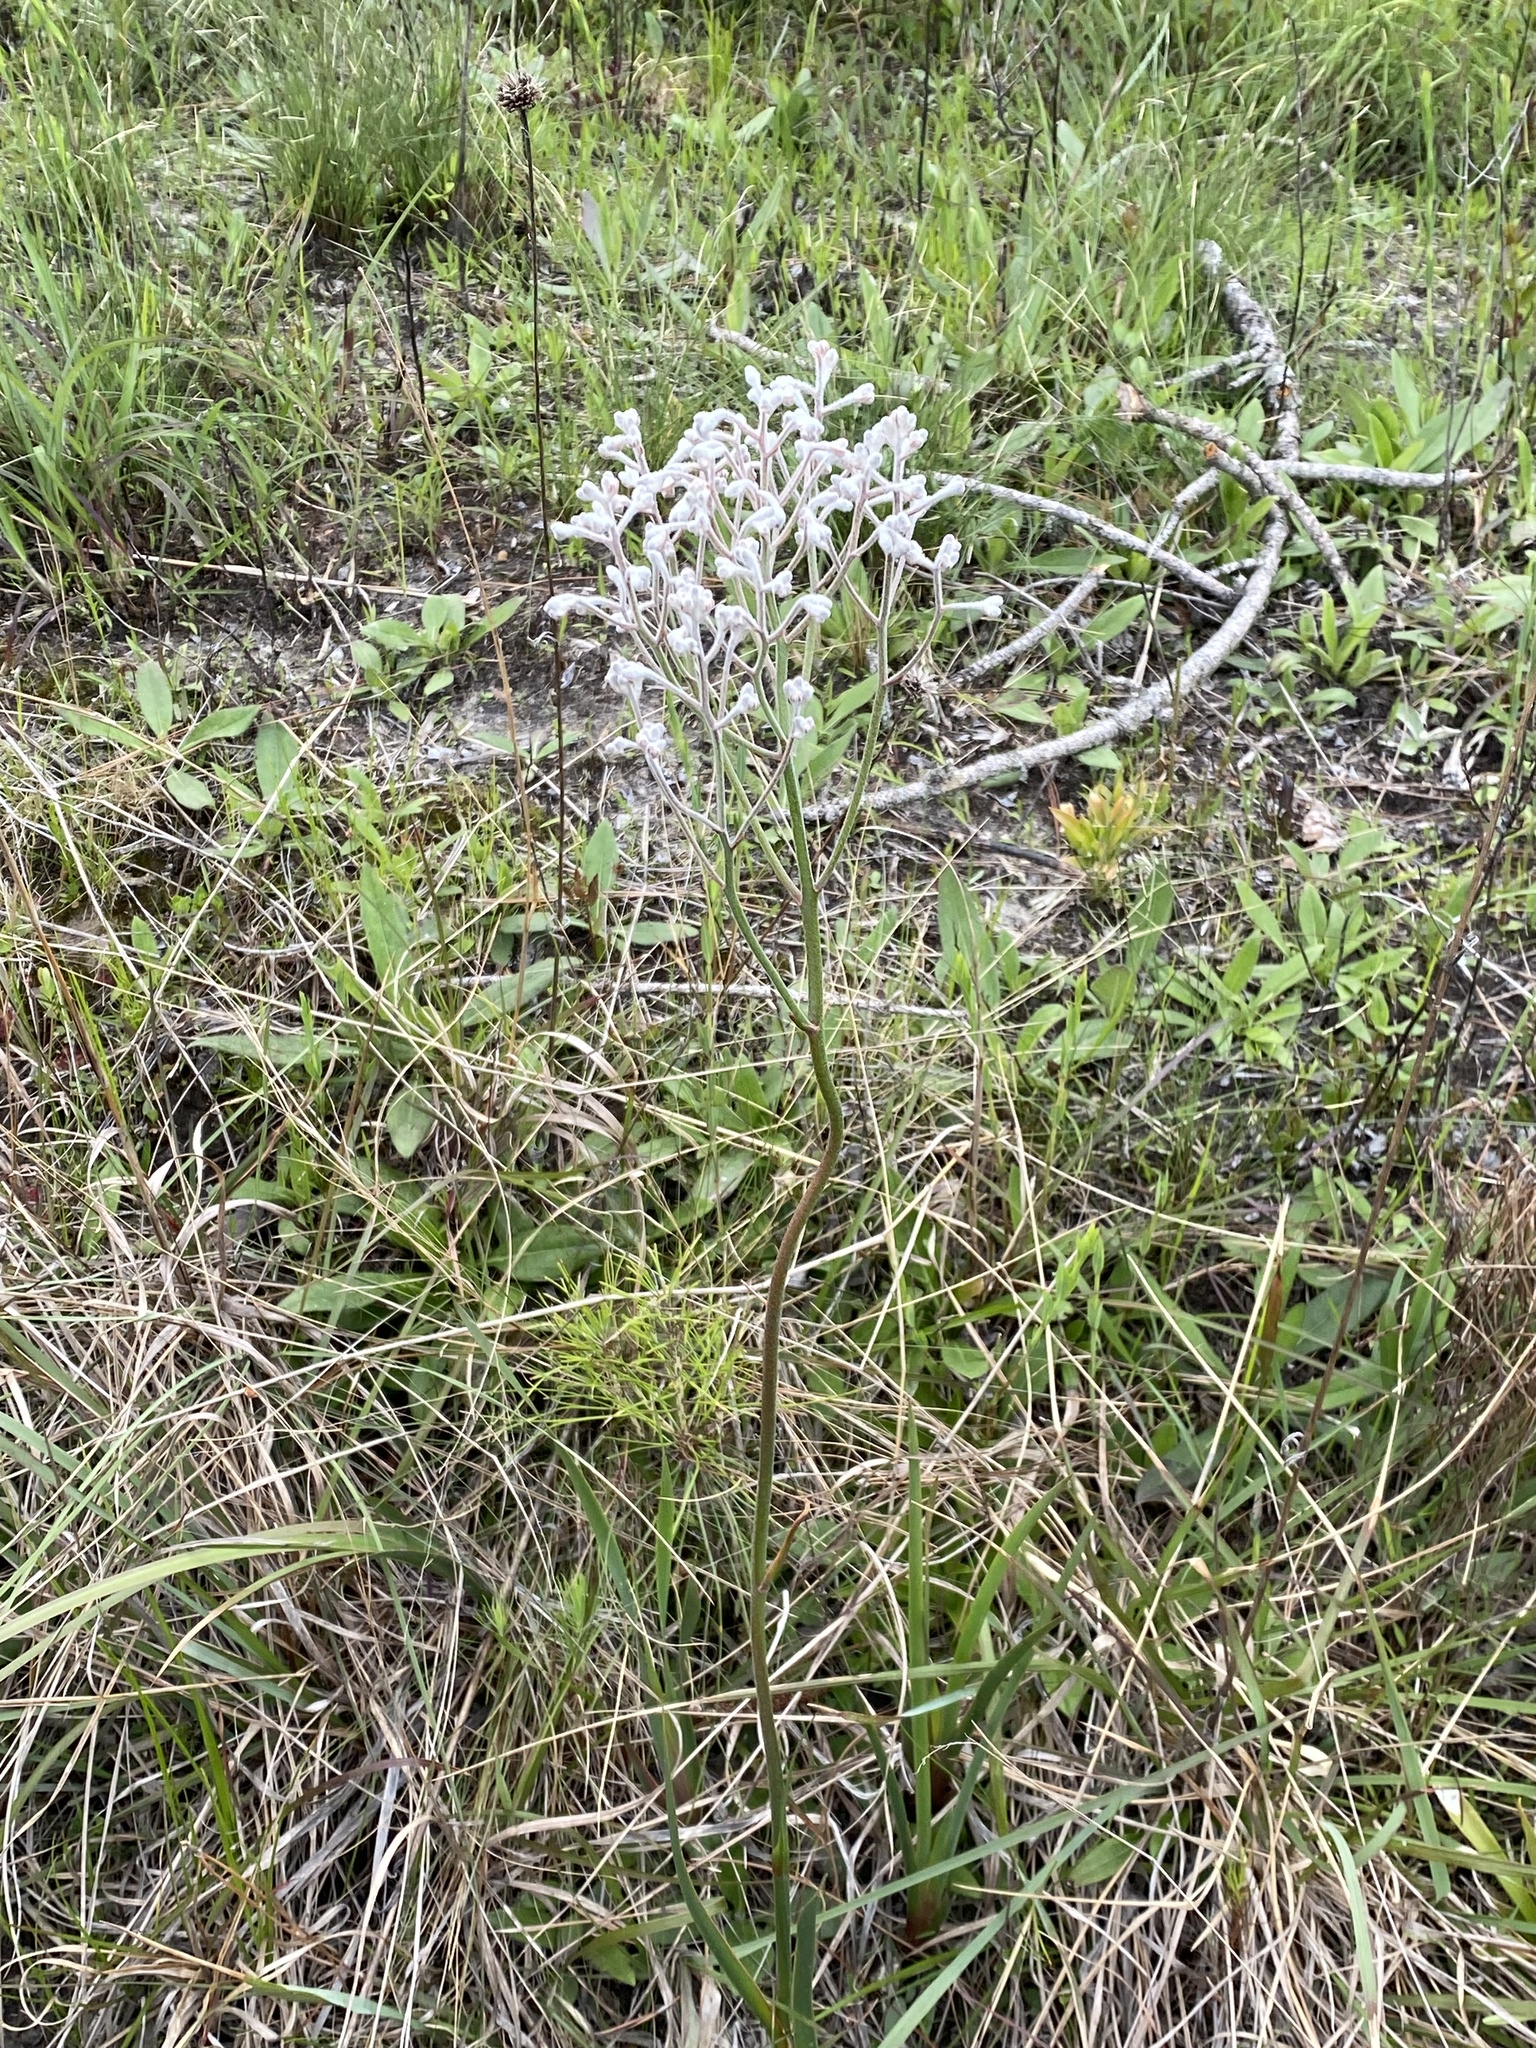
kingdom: Plantae
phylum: Tracheophyta
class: Liliopsida
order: Dioscoreales
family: Nartheciaceae
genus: Lophiola
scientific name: Lophiola aurea
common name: Golden-crest
